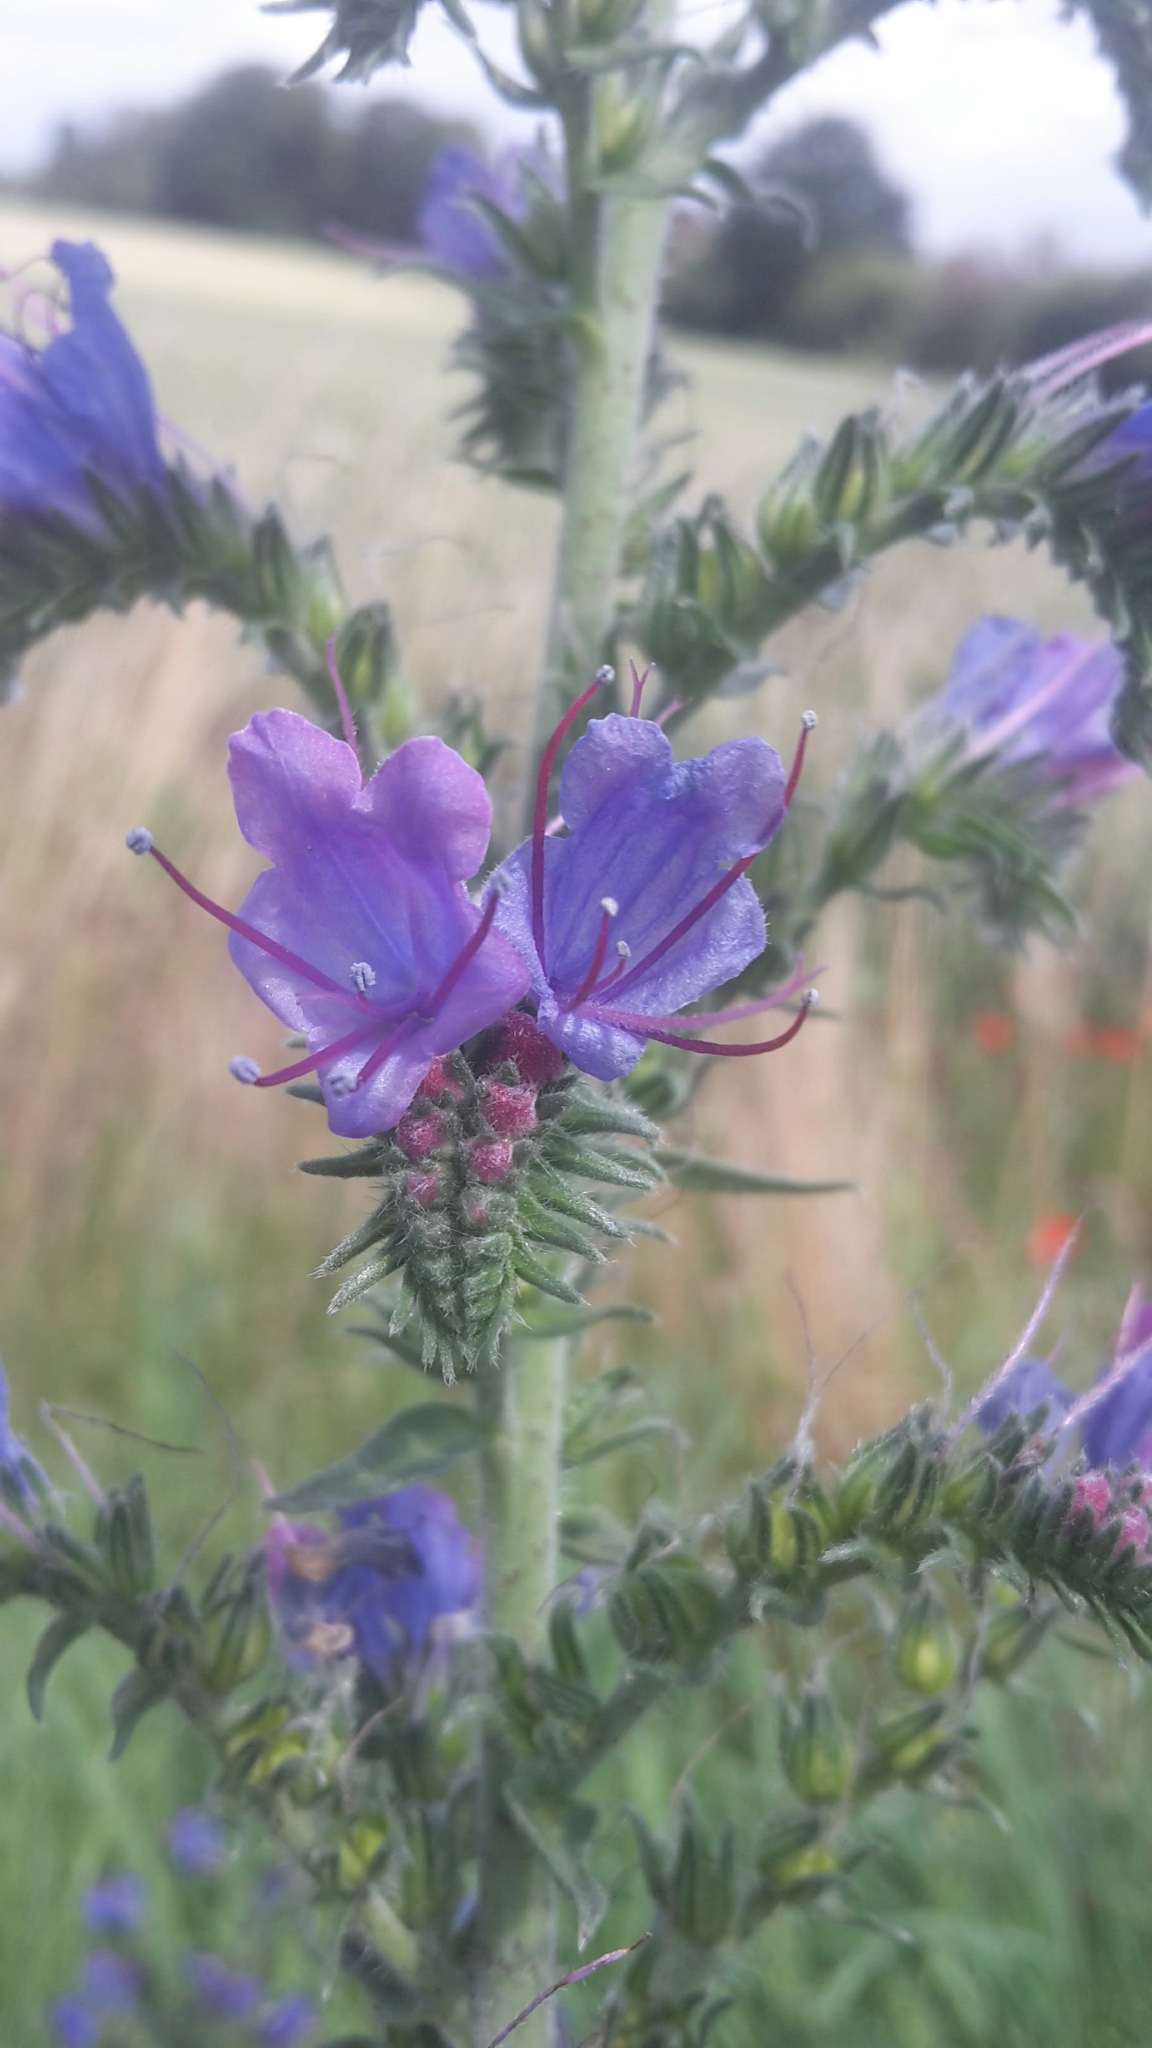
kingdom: Plantae
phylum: Tracheophyta
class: Magnoliopsida
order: Boraginales
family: Boraginaceae
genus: Echium
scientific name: Echium vulgare
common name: Common viper's bugloss
